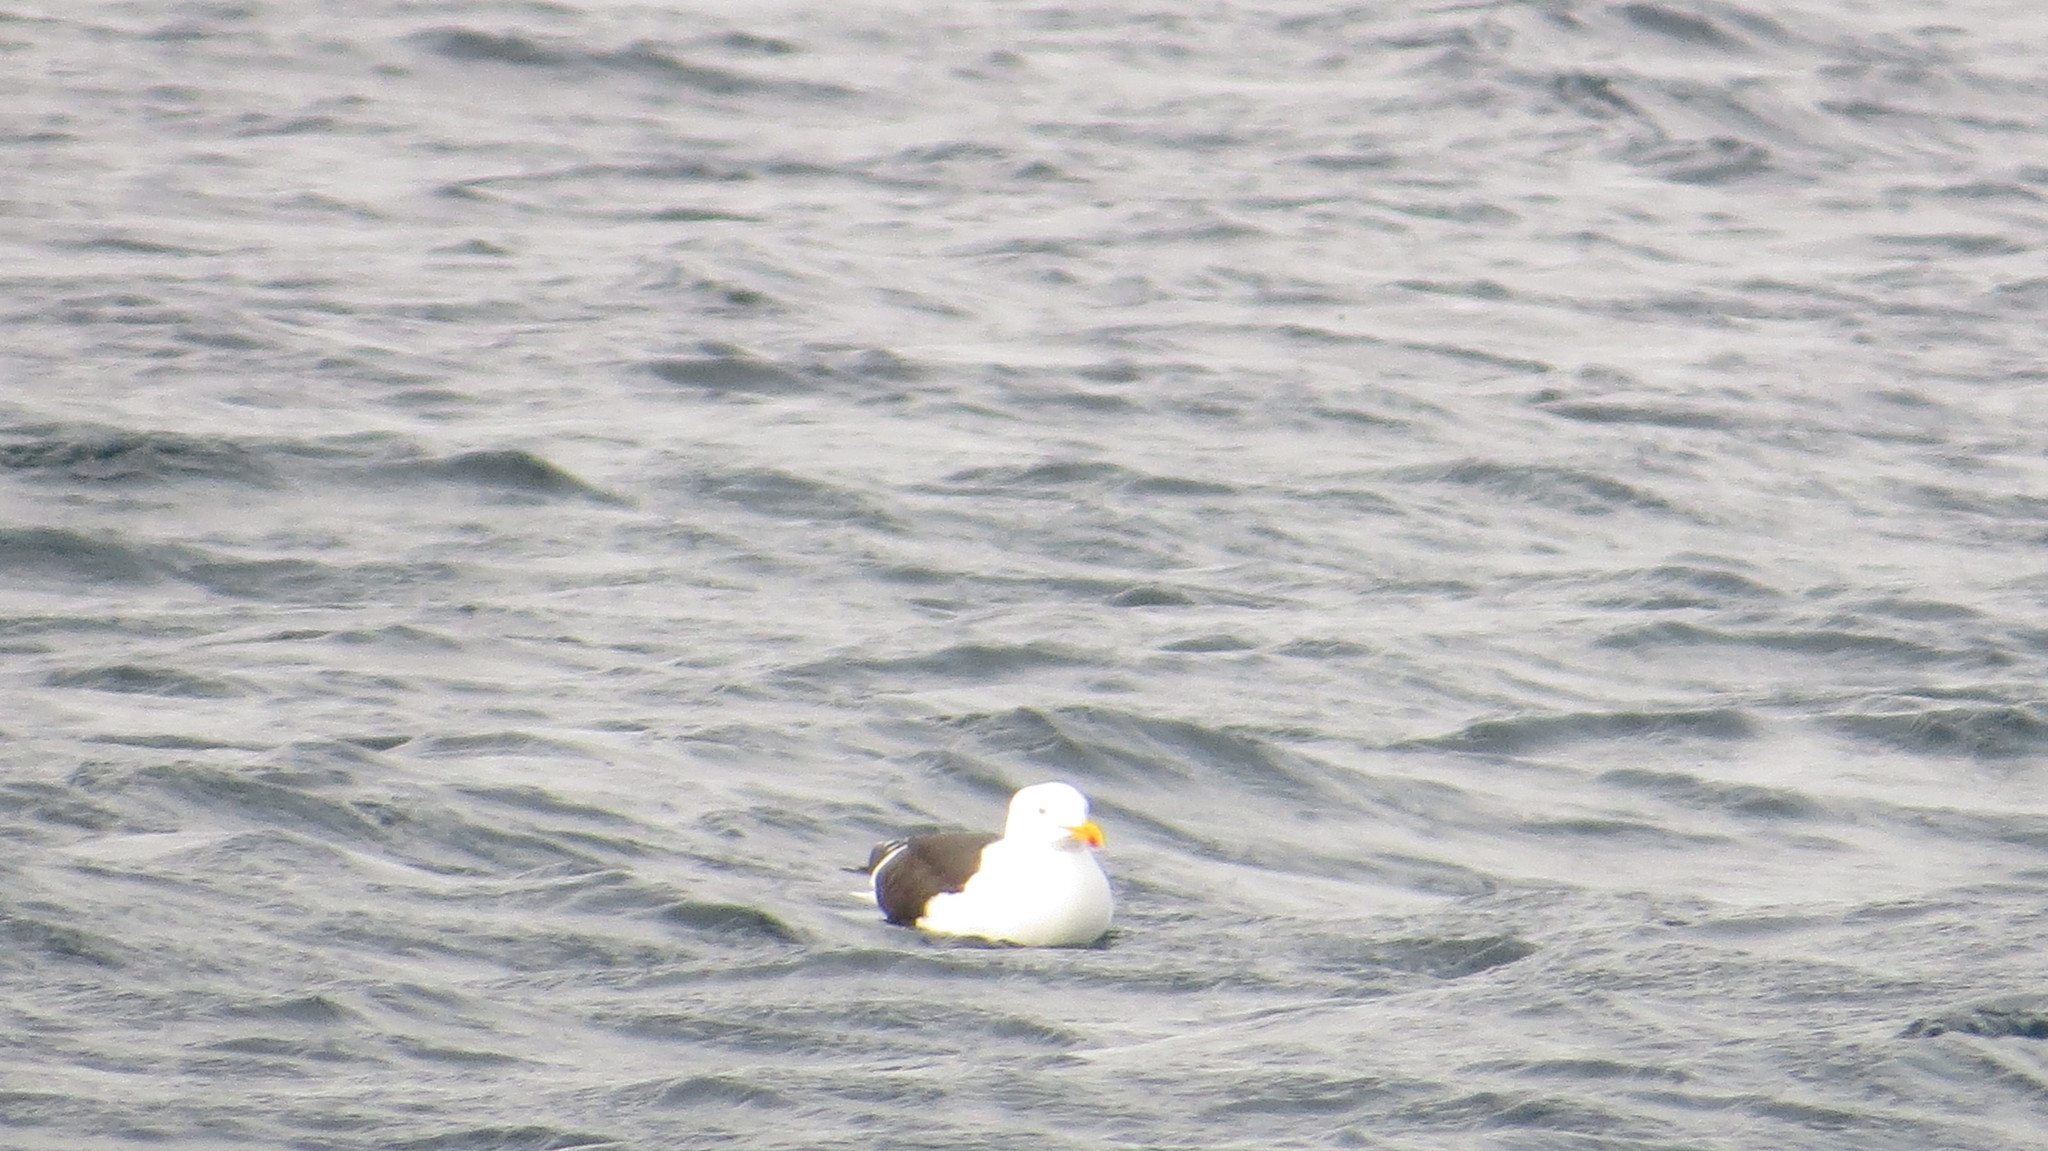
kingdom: Animalia
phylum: Chordata
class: Aves
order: Charadriiformes
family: Laridae
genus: Larus
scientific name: Larus dominicanus
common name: Kelp gull
